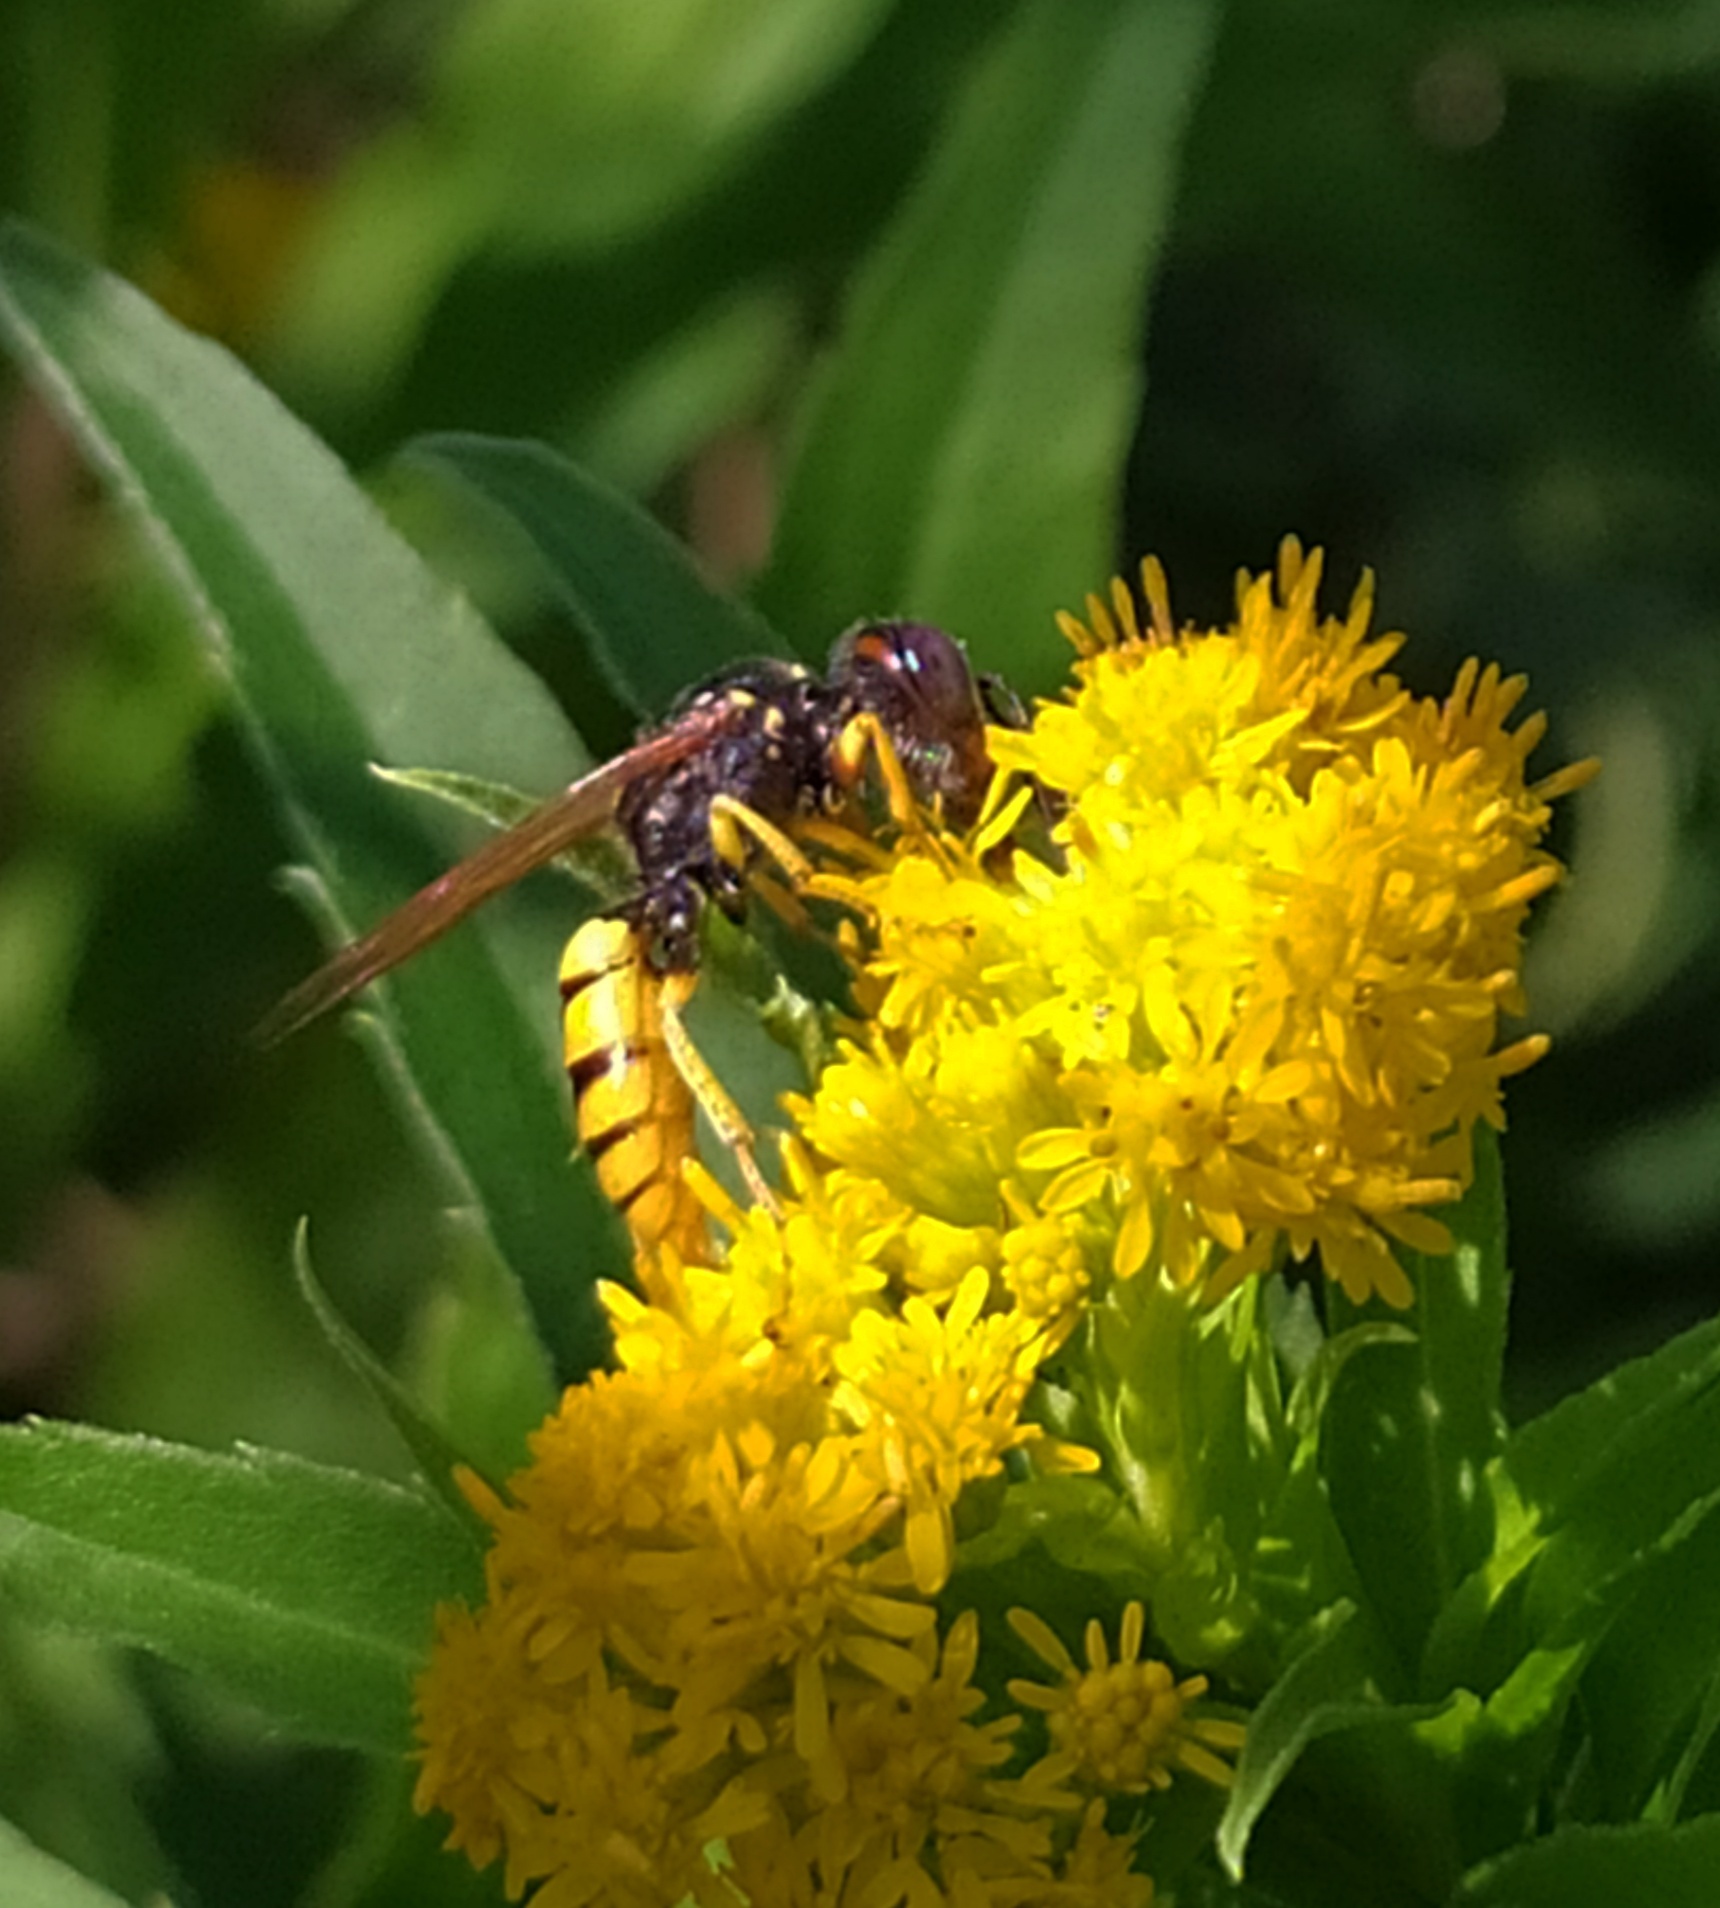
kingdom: Animalia
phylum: Arthropoda
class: Insecta
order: Hymenoptera
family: Crabronidae
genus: Philanthus
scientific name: Philanthus triangulum
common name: Bee wolf
